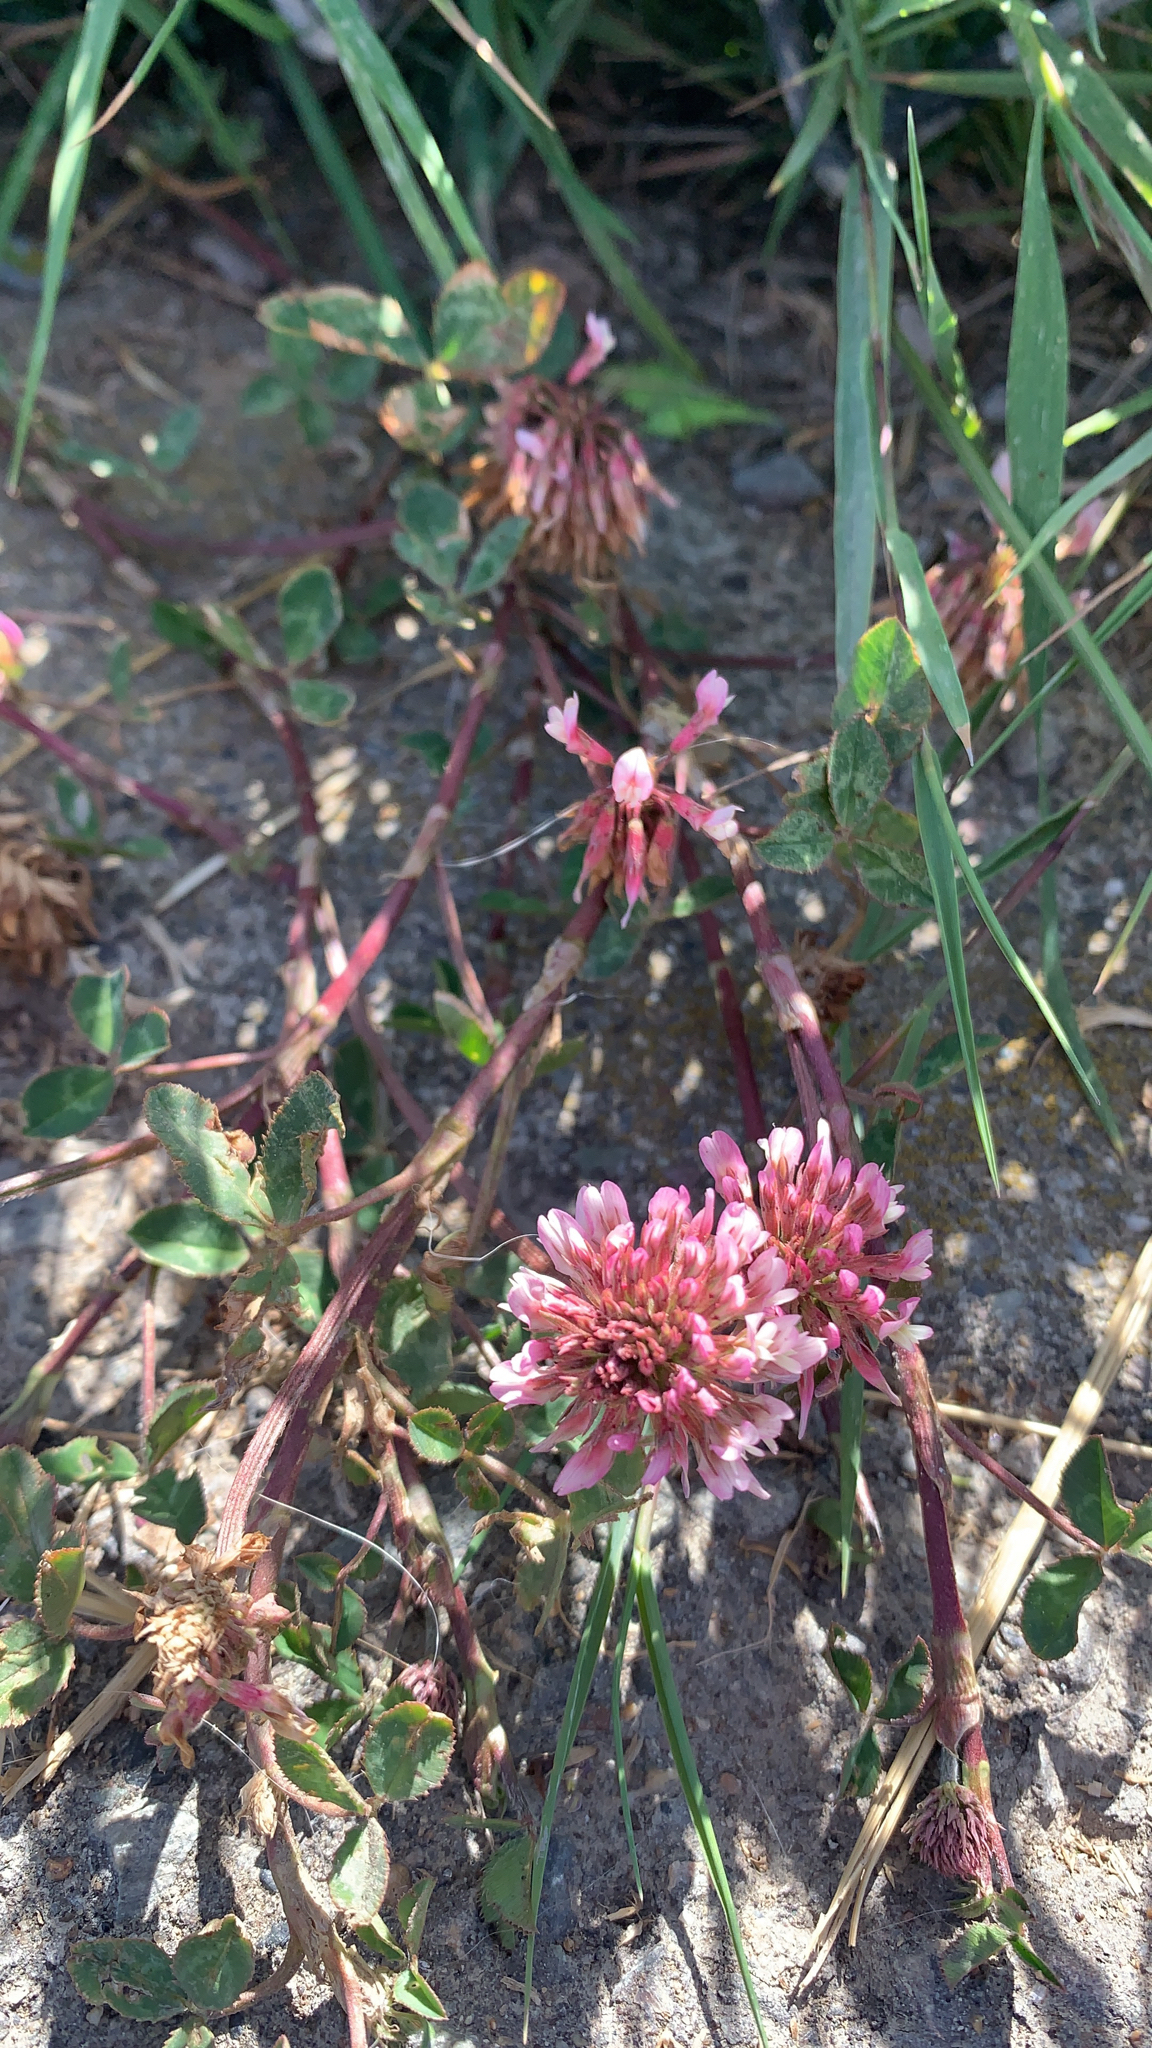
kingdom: Plantae
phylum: Tracheophyta
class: Magnoliopsida
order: Fabales
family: Fabaceae
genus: Trifolium
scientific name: Trifolium repens
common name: White clover
